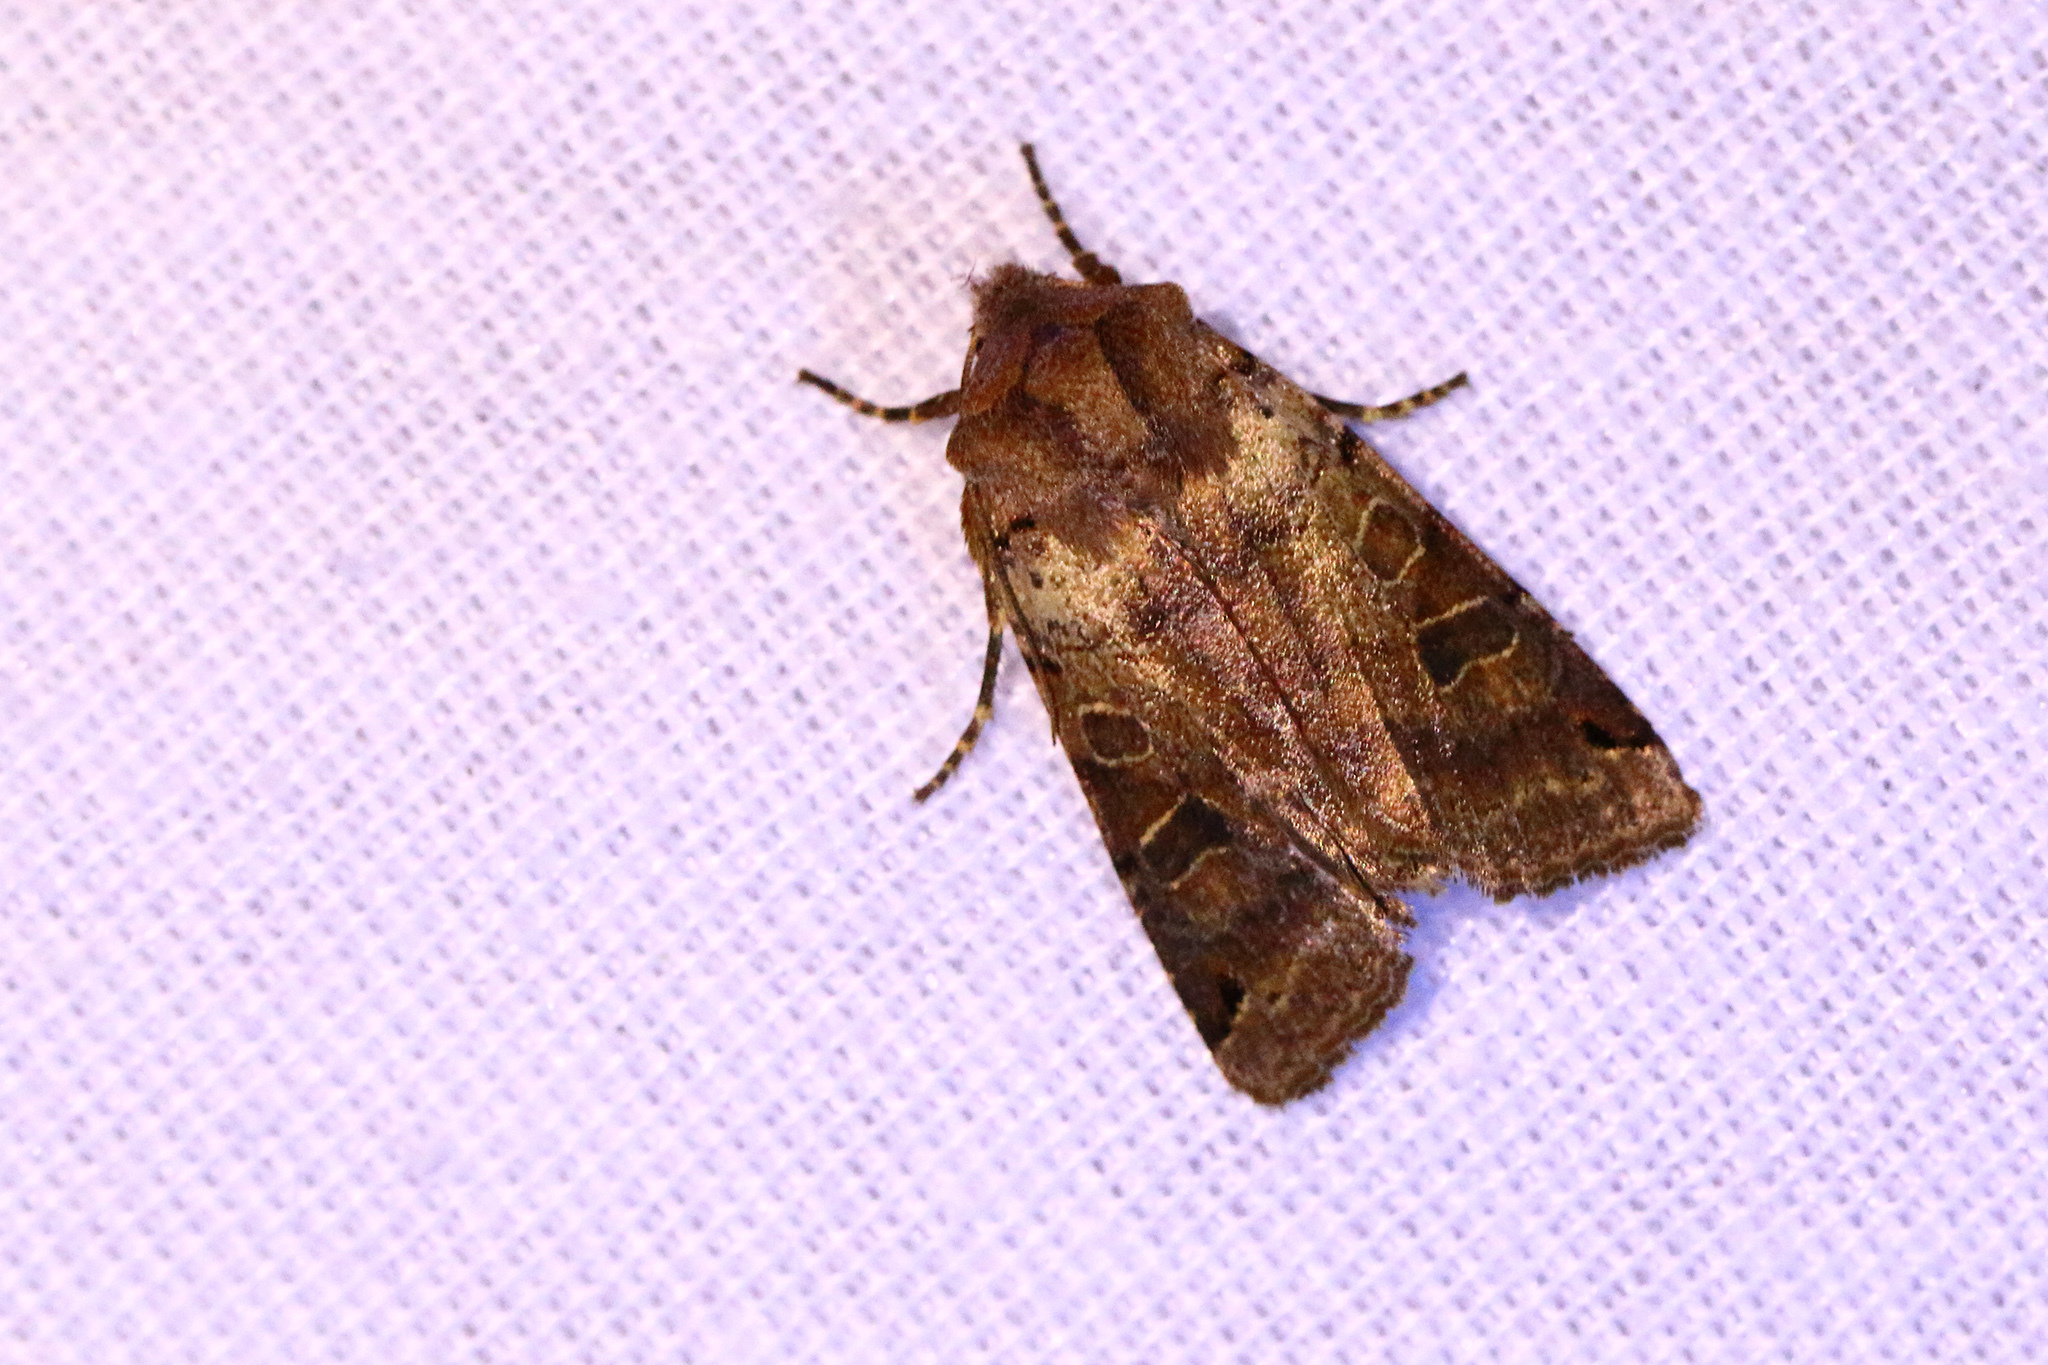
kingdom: Animalia
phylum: Arthropoda
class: Insecta
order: Lepidoptera
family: Noctuidae
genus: Agrochola
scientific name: Agrochola litura
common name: Brown-spot pinion
